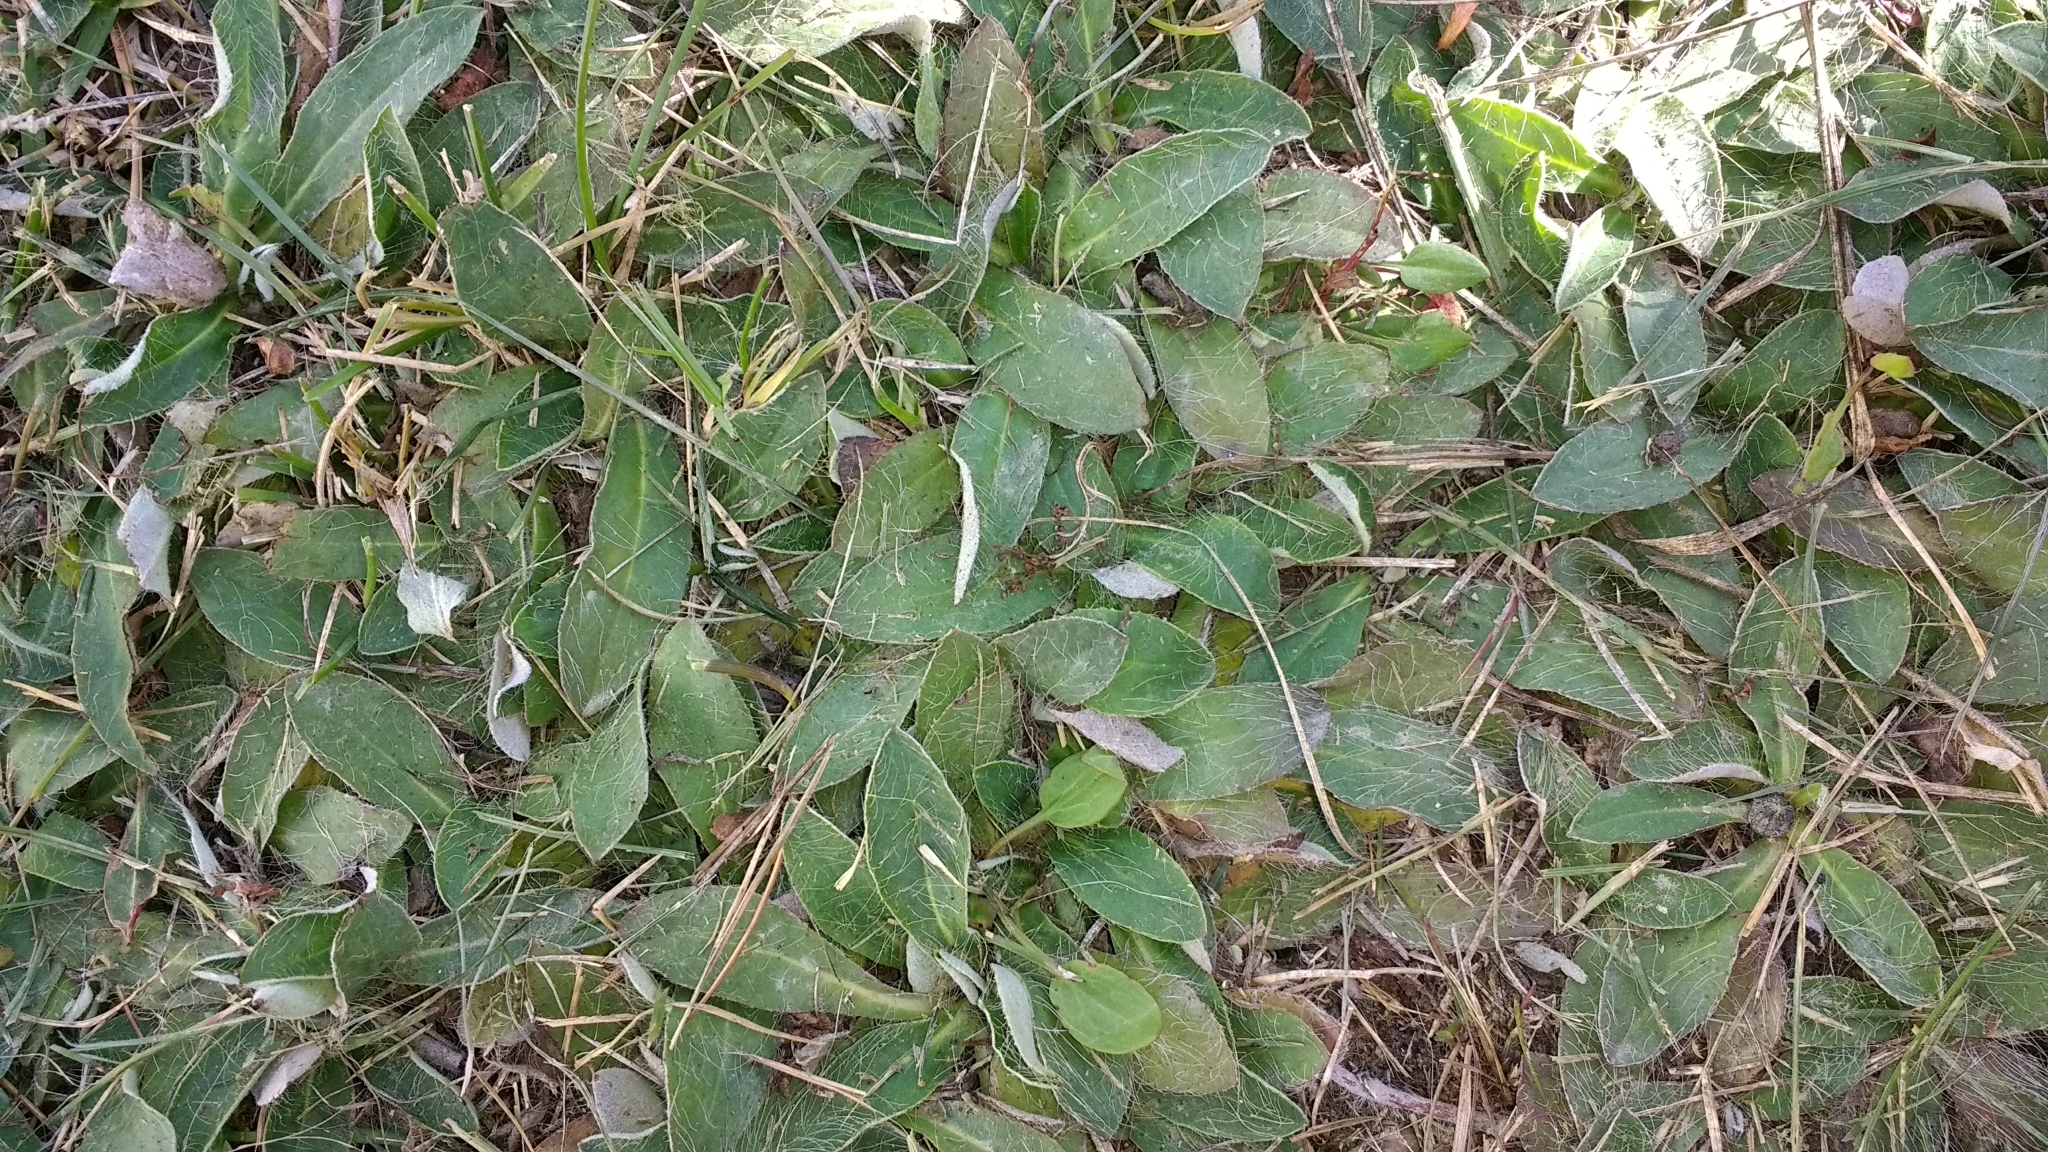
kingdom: Plantae
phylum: Tracheophyta
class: Magnoliopsida
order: Asterales
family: Asteraceae
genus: Pilosella
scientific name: Pilosella officinarum
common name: Mouse-ear hawkweed
